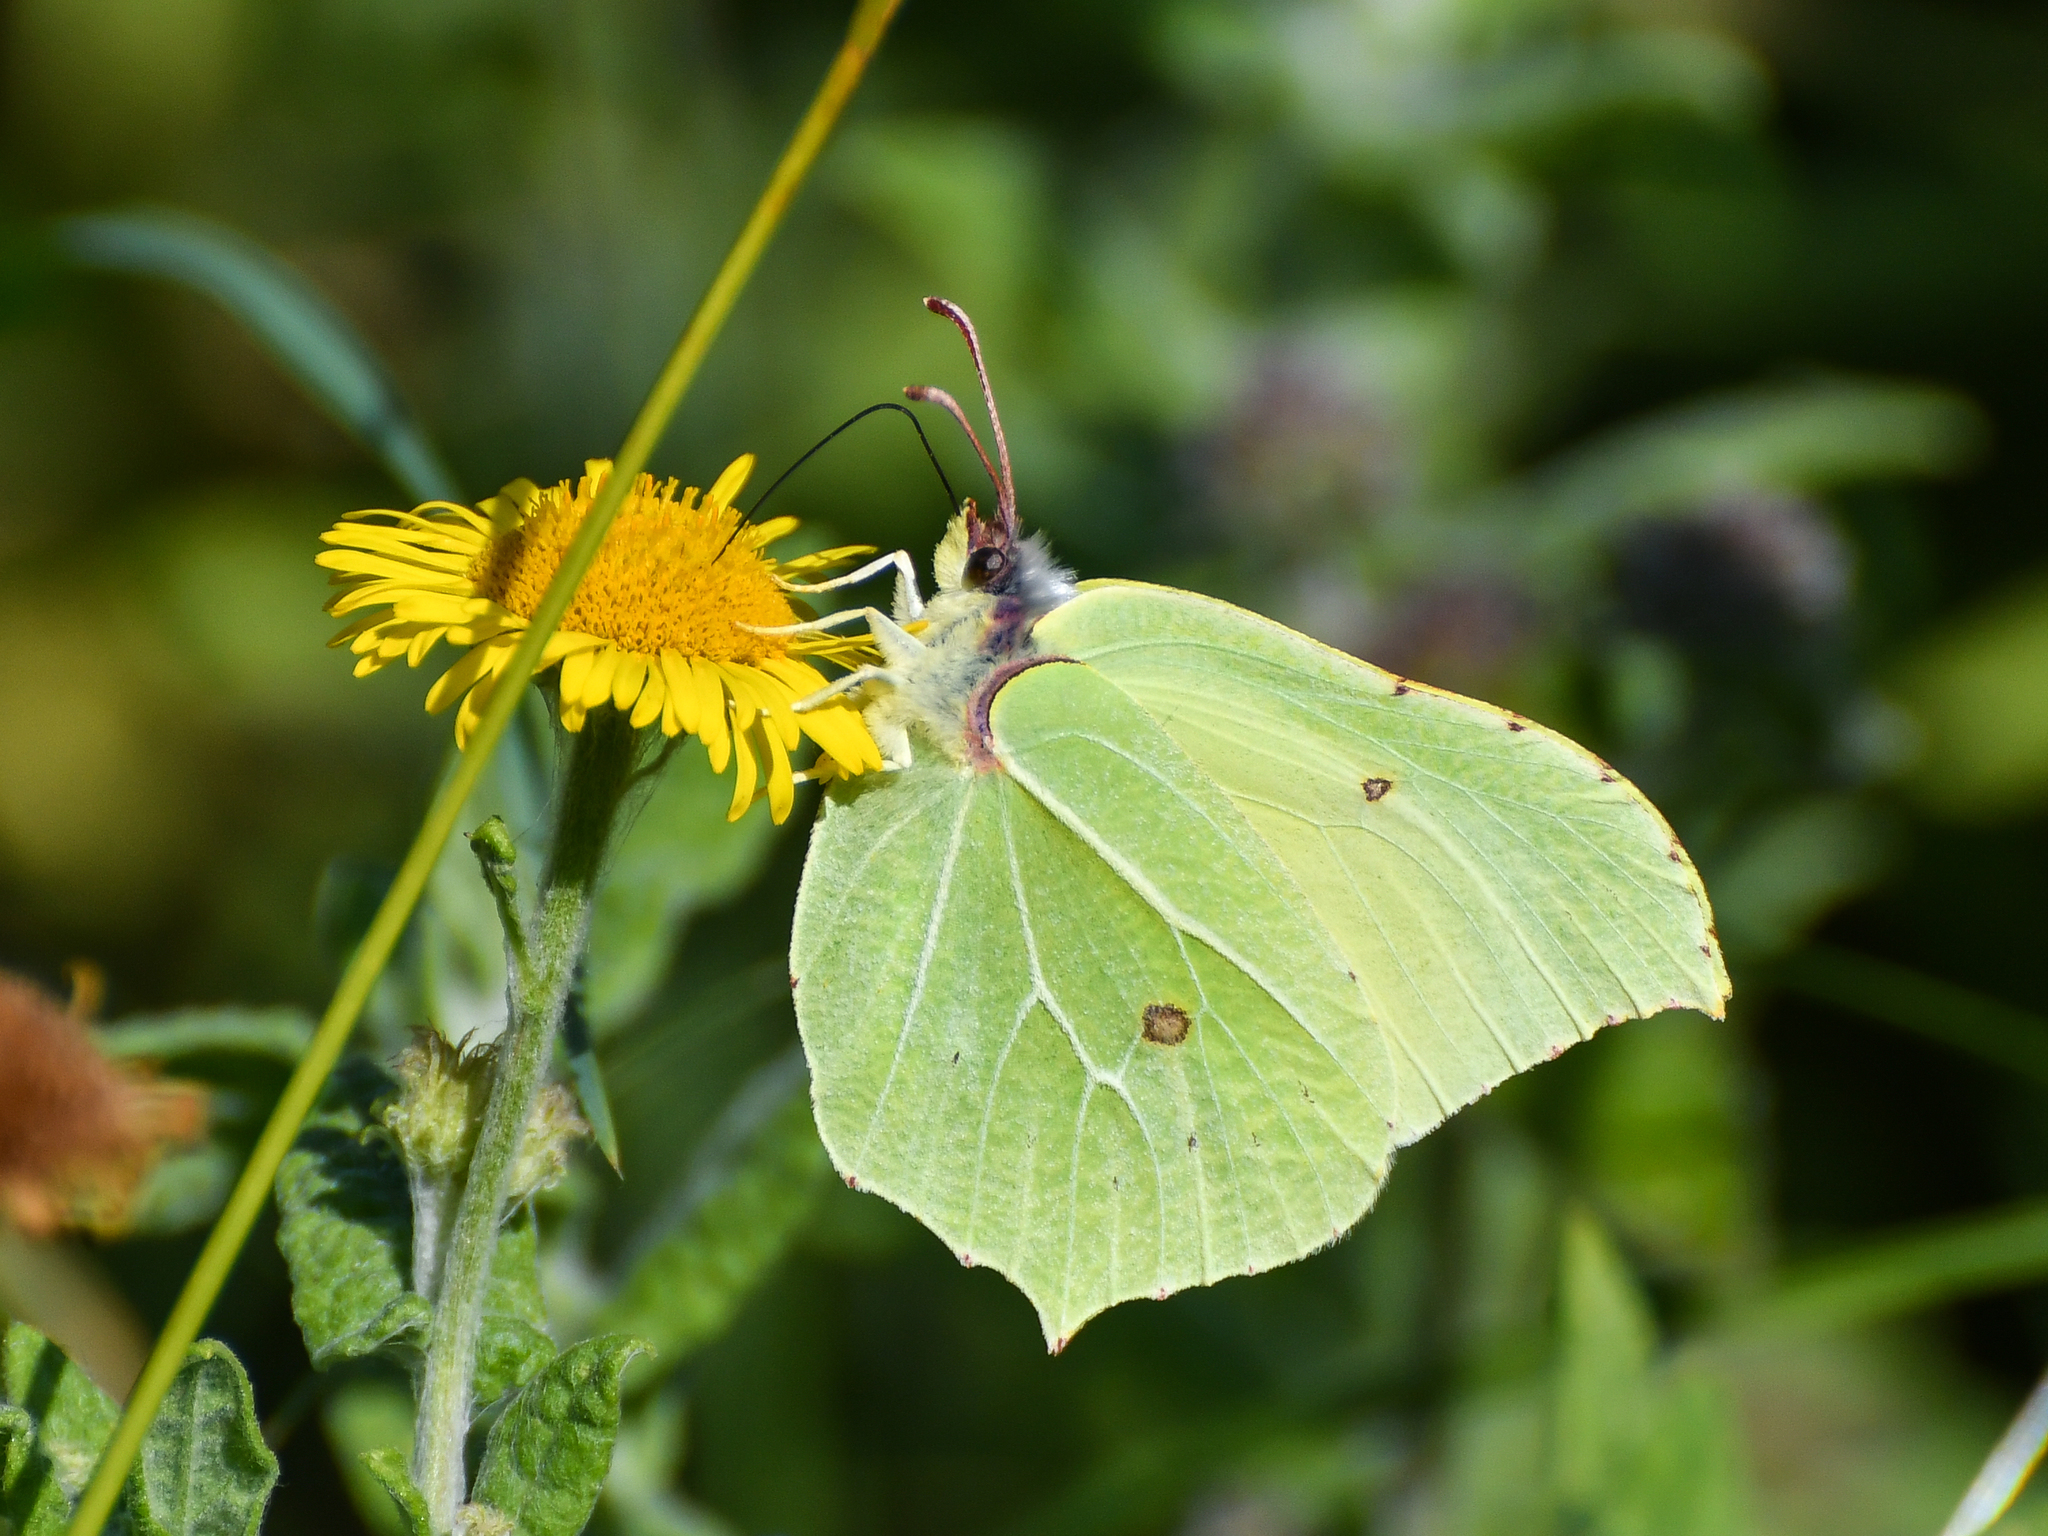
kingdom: Animalia
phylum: Arthropoda
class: Insecta
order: Lepidoptera
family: Pieridae
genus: Gonepteryx
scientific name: Gonepteryx rhamni
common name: Brimstone
